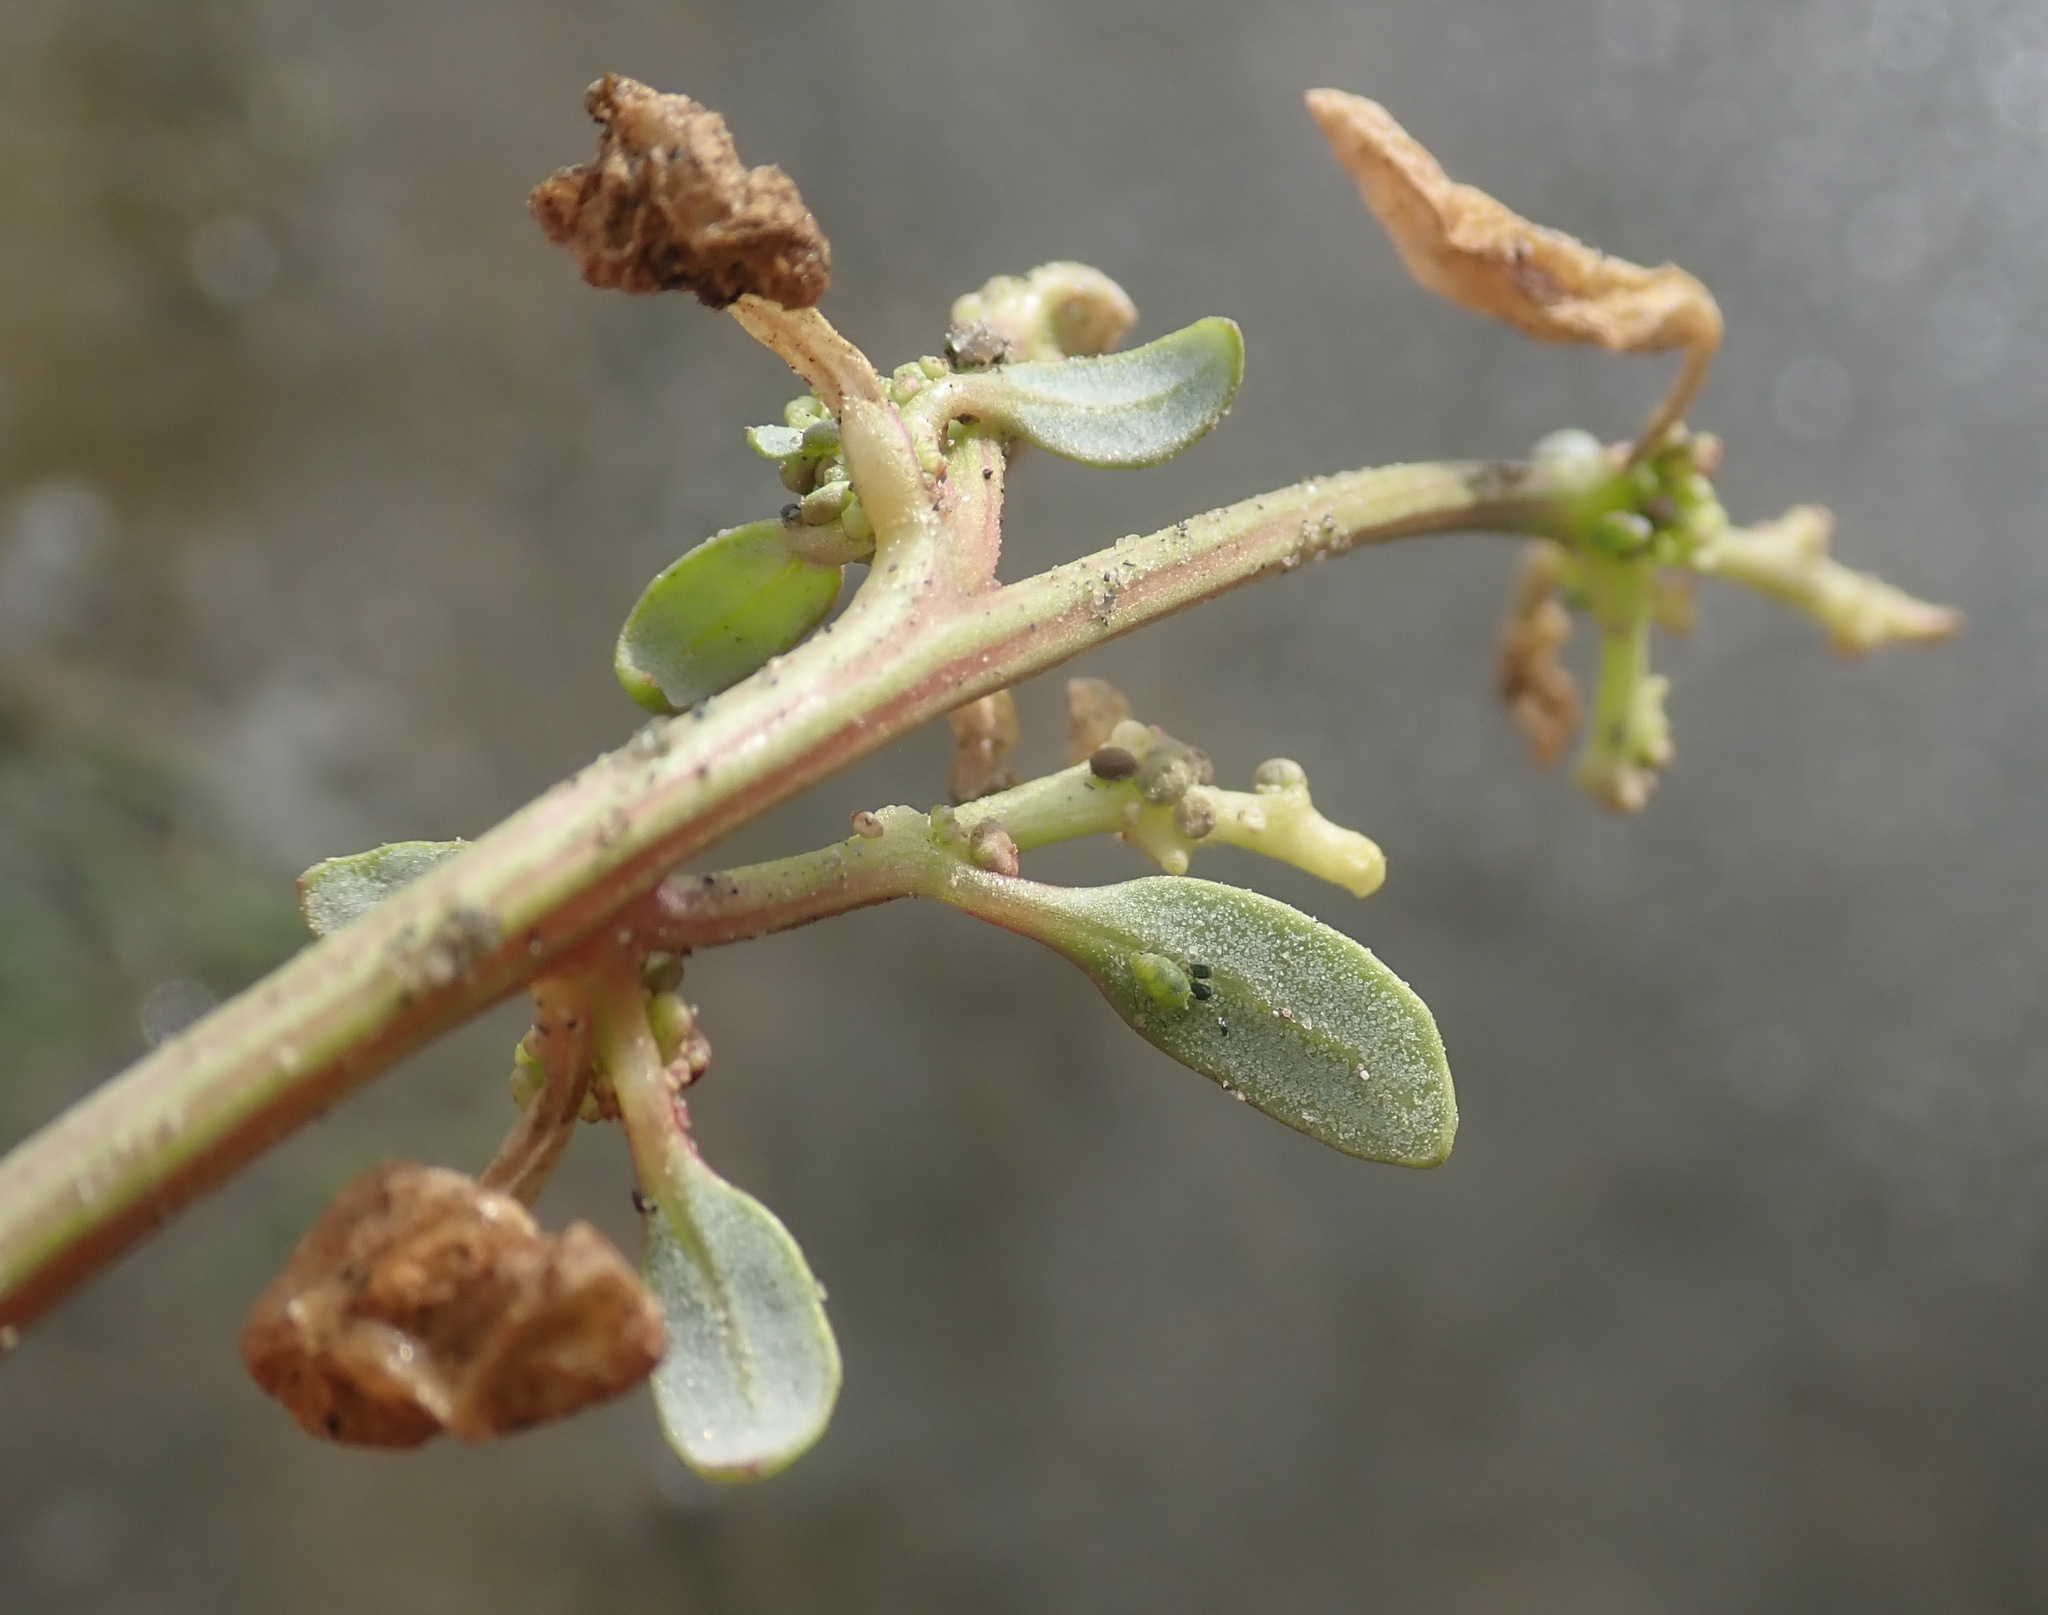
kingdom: Plantae
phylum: Tracheophyta
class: Magnoliopsida
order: Caryophyllales
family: Amaranthaceae
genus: Oxybasis
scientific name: Oxybasis glauca
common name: Glaucous goosefoot
